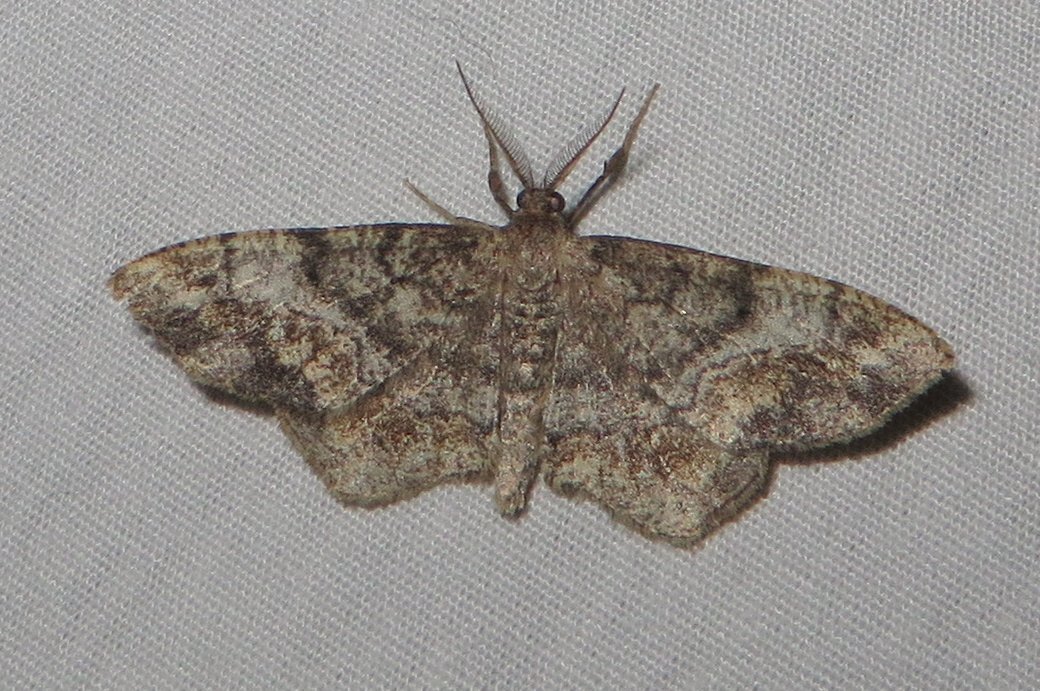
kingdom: Animalia
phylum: Arthropoda
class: Insecta
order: Lepidoptera
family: Geometridae
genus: Hypagyrtis
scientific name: Hypagyrtis unipunctata
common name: One-spotted variant
